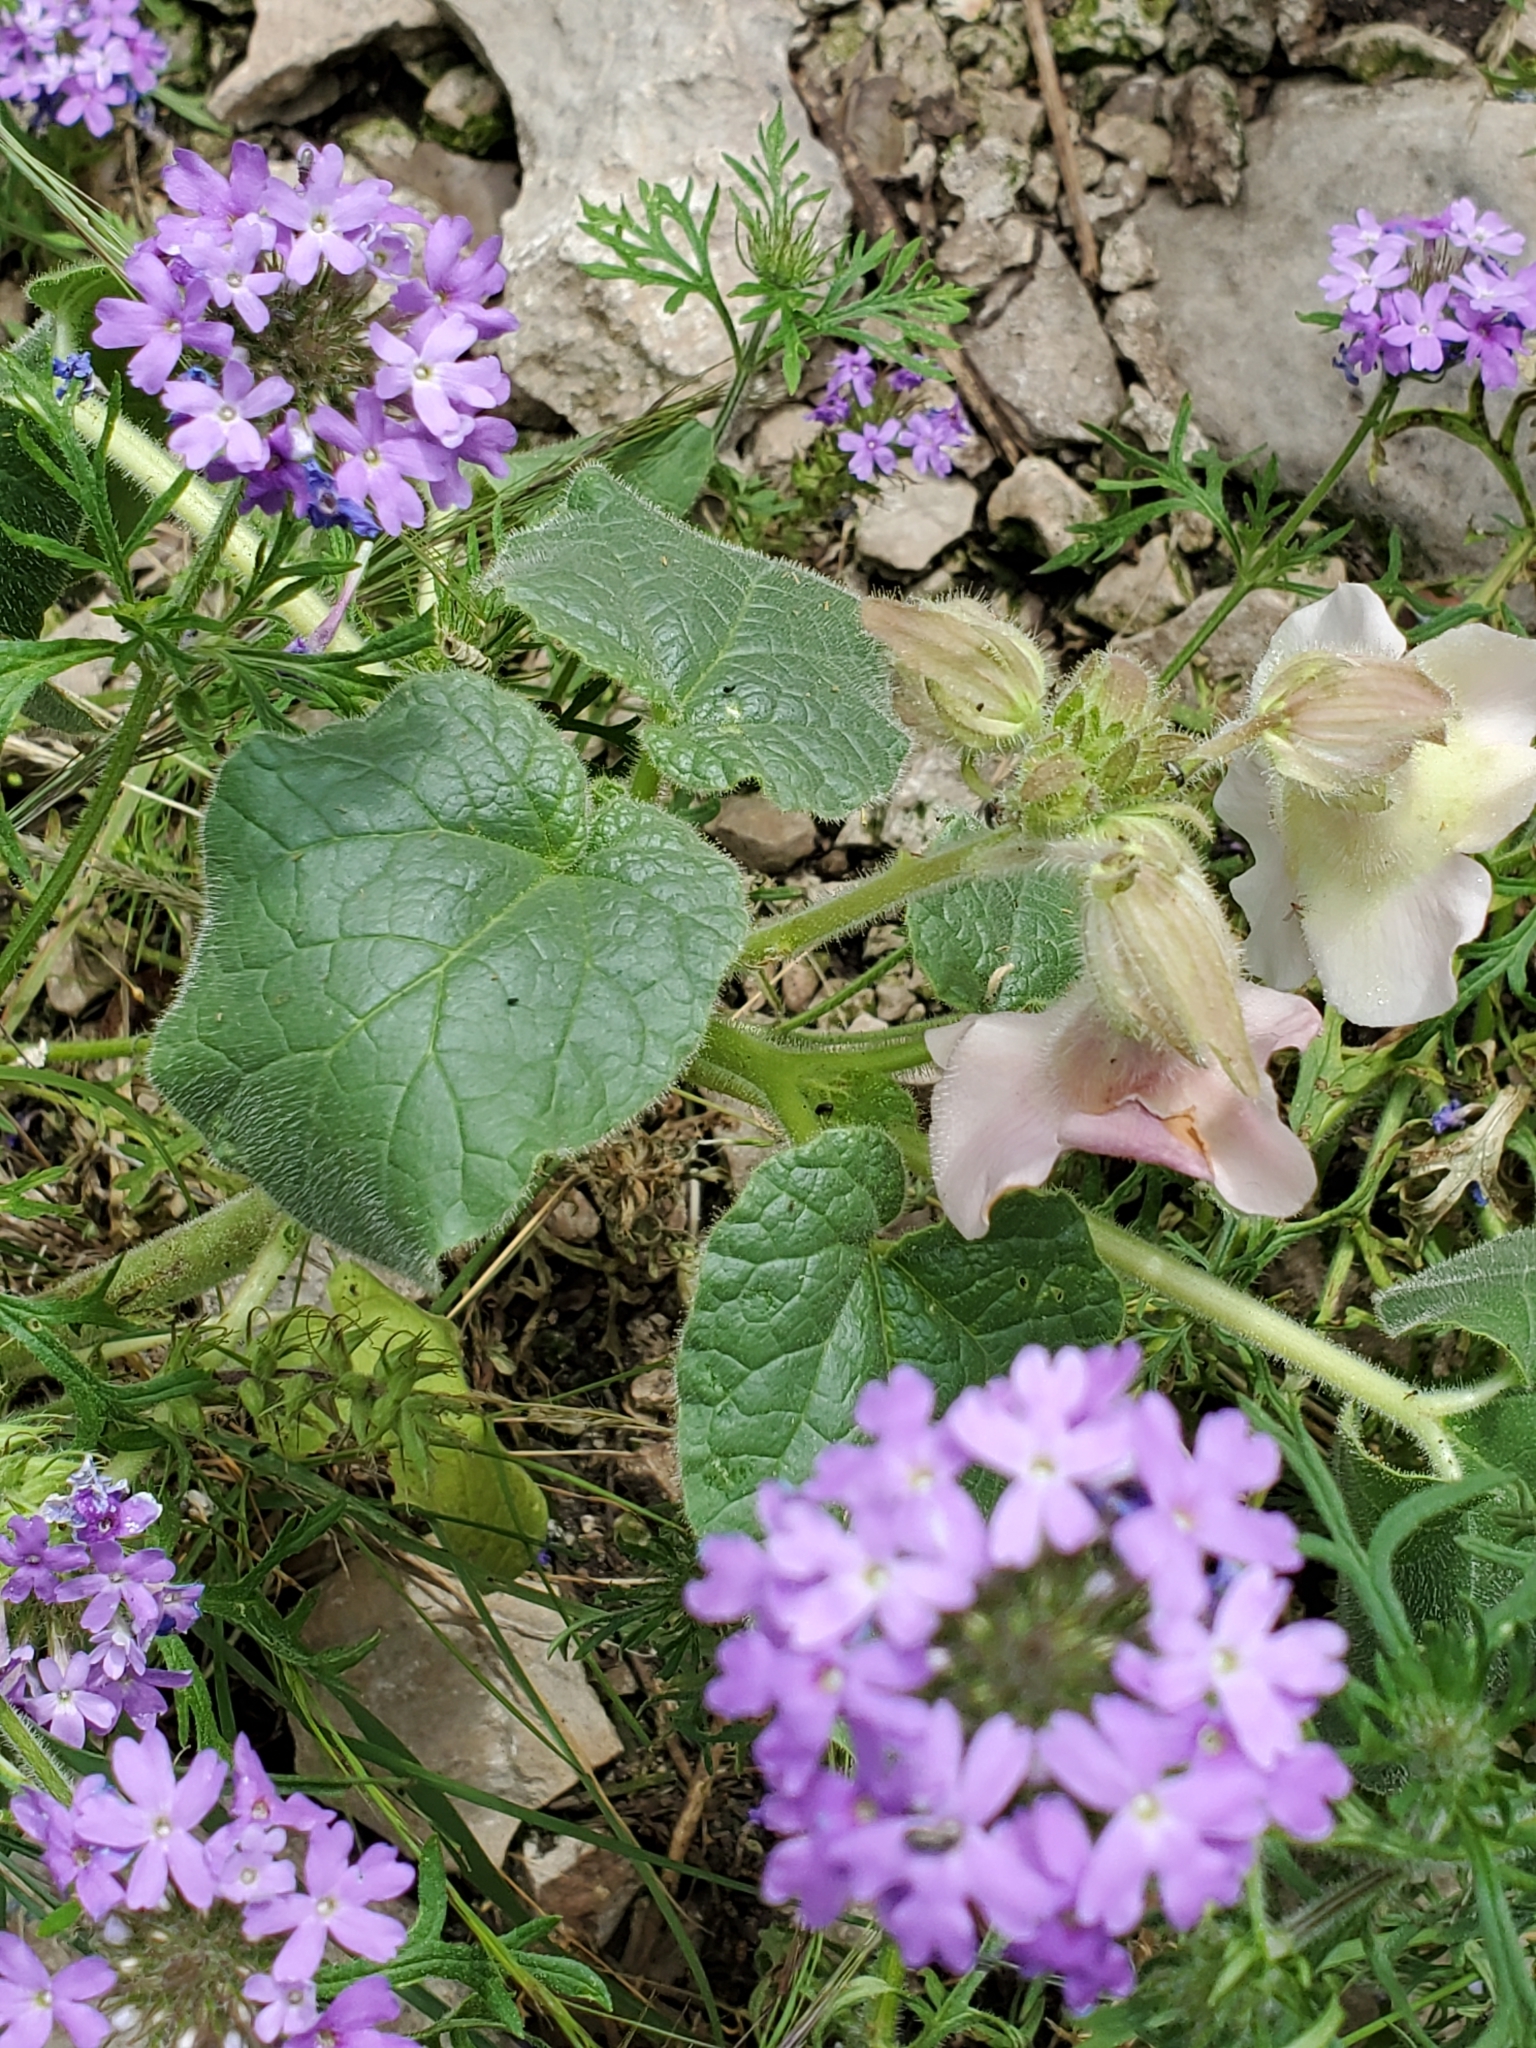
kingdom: Plantae
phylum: Tracheophyta
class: Magnoliopsida
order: Lamiales
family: Martyniaceae
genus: Proboscidea
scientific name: Proboscidea louisianica
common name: Elephant tusks
